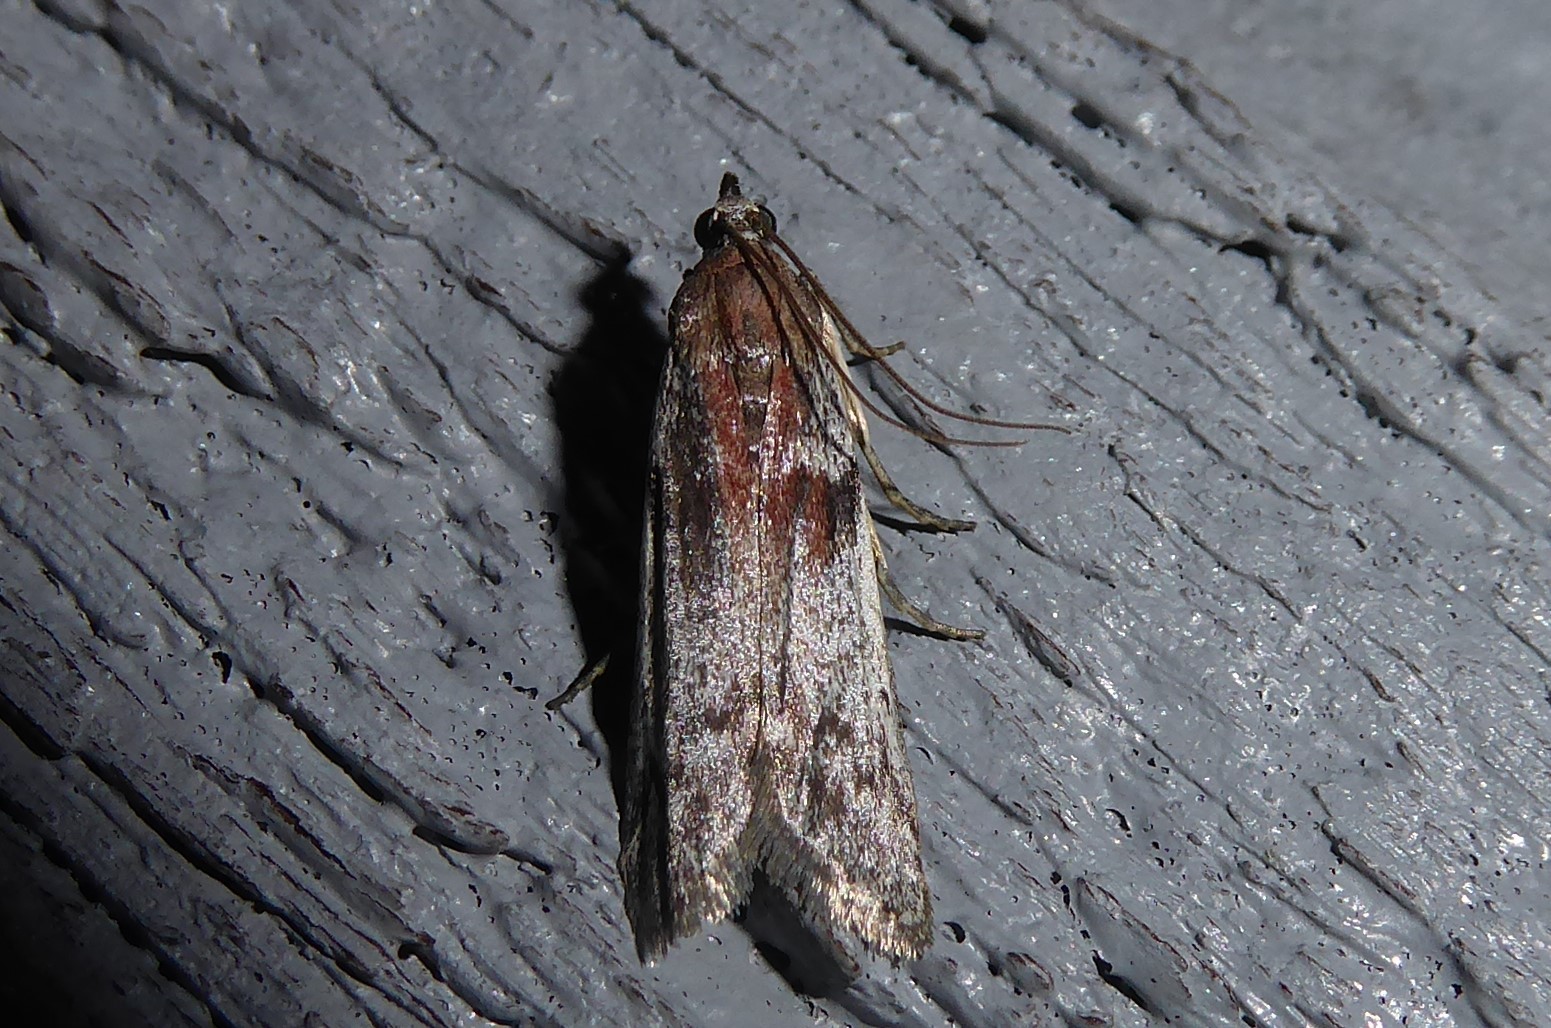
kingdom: Animalia
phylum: Arthropoda
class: Insecta
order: Lepidoptera
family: Pyralidae
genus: Patagoniodes
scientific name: Patagoniodes farinaria
